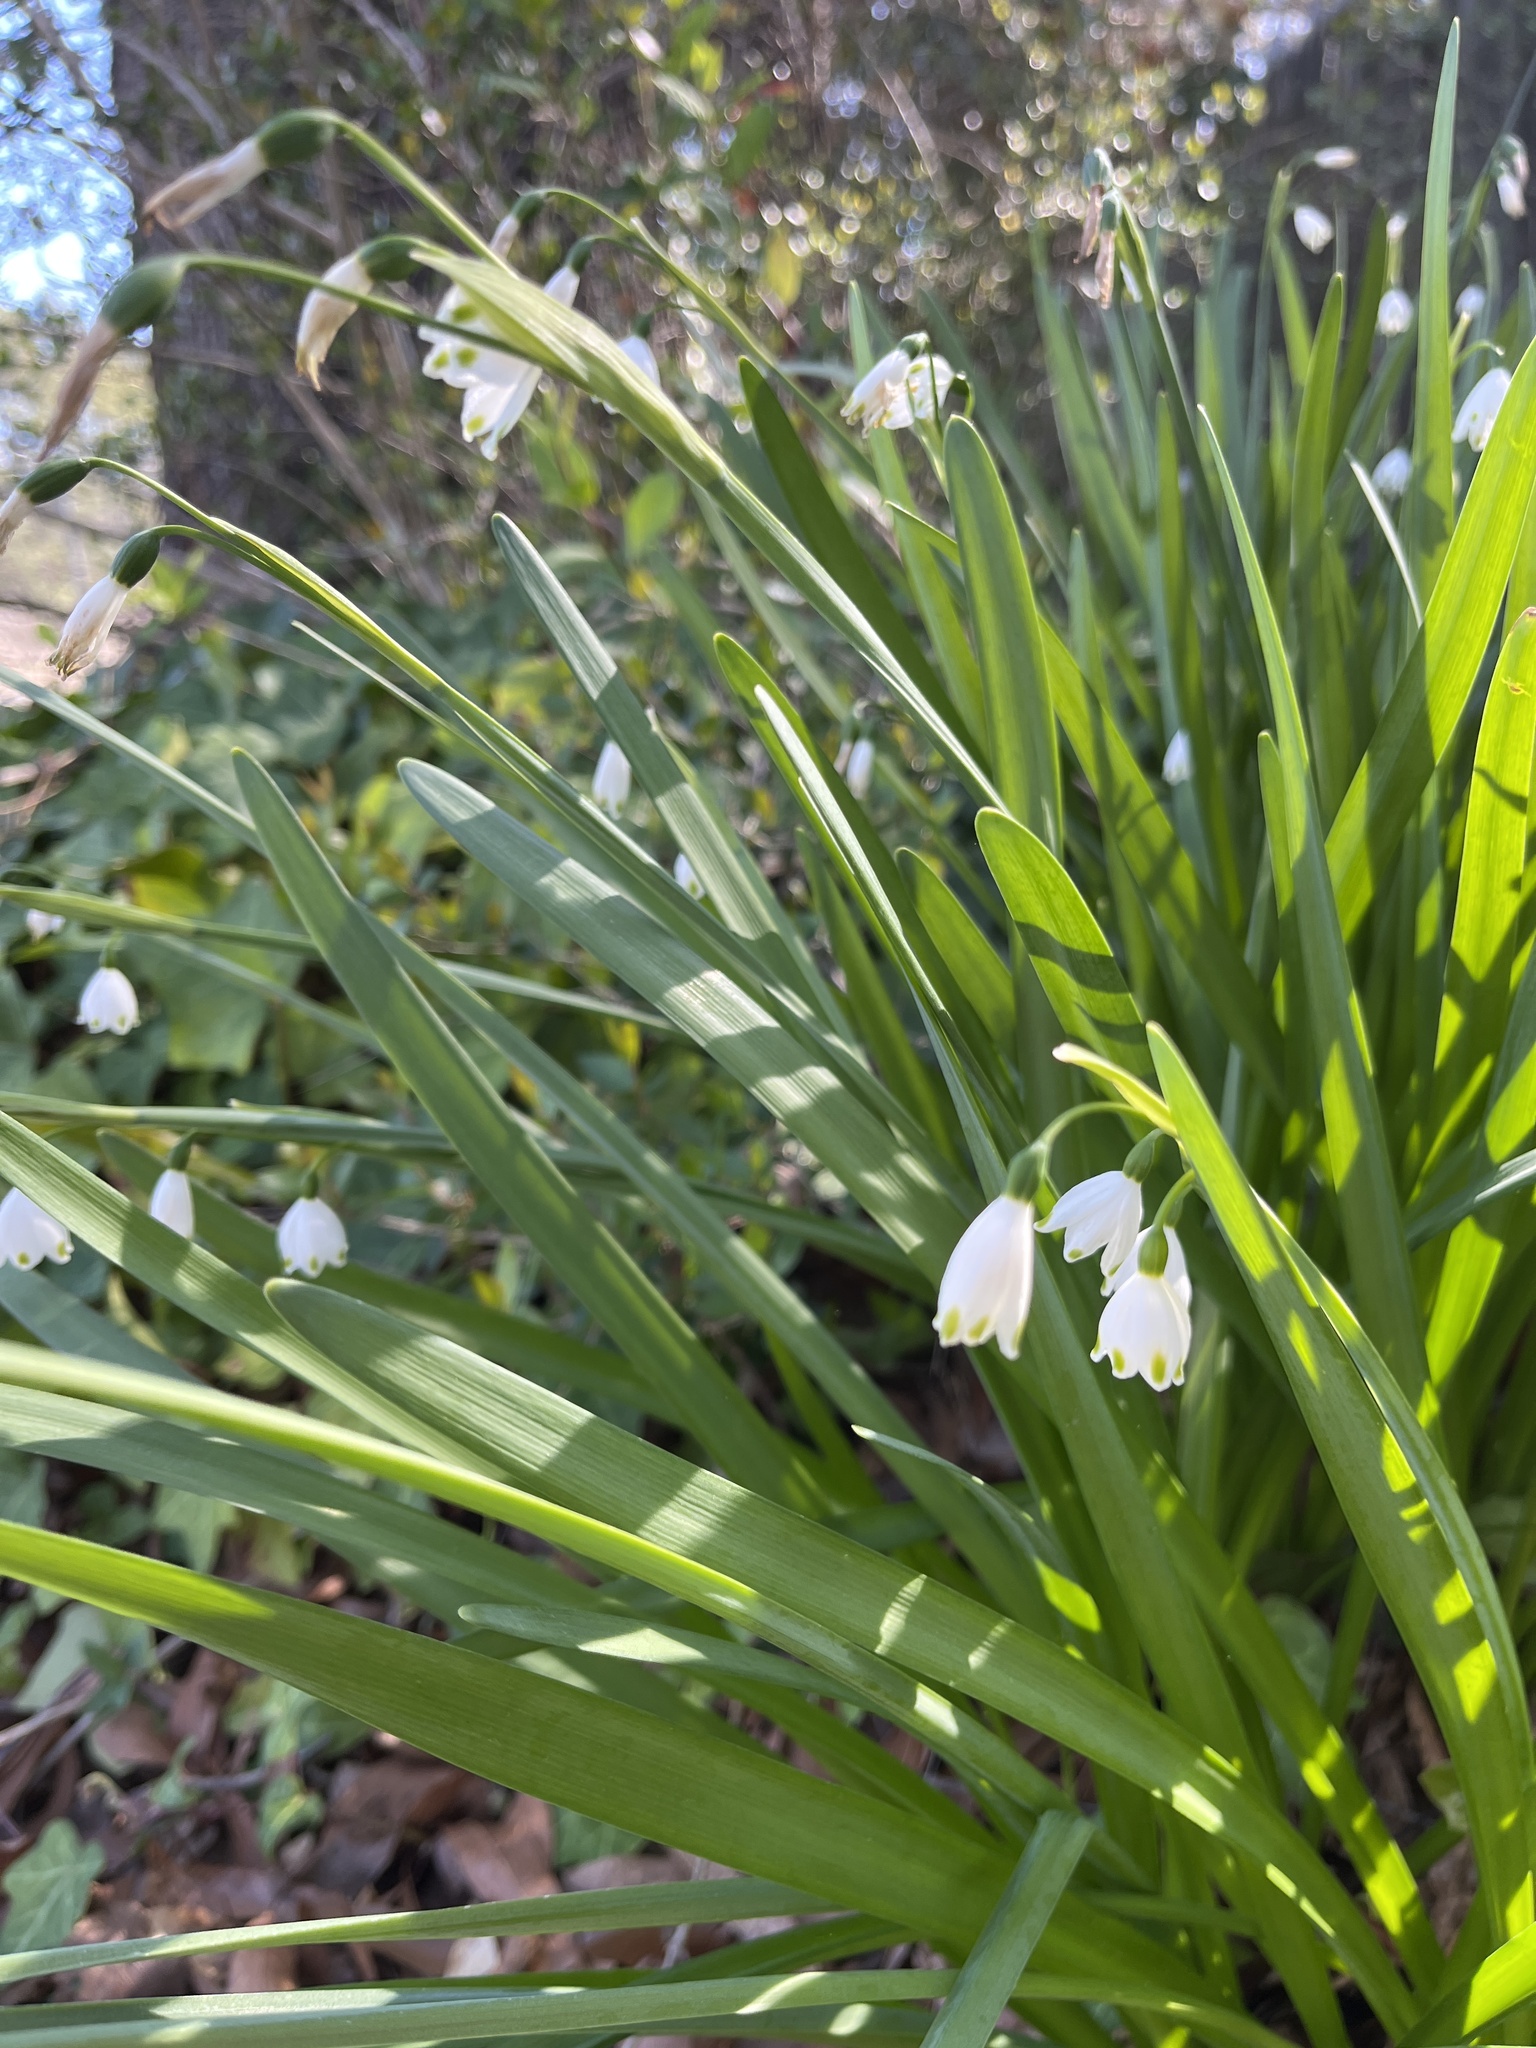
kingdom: Plantae
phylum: Tracheophyta
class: Liliopsida
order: Asparagales
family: Amaryllidaceae
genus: Leucojum
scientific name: Leucojum aestivum
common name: Summer snowflake
